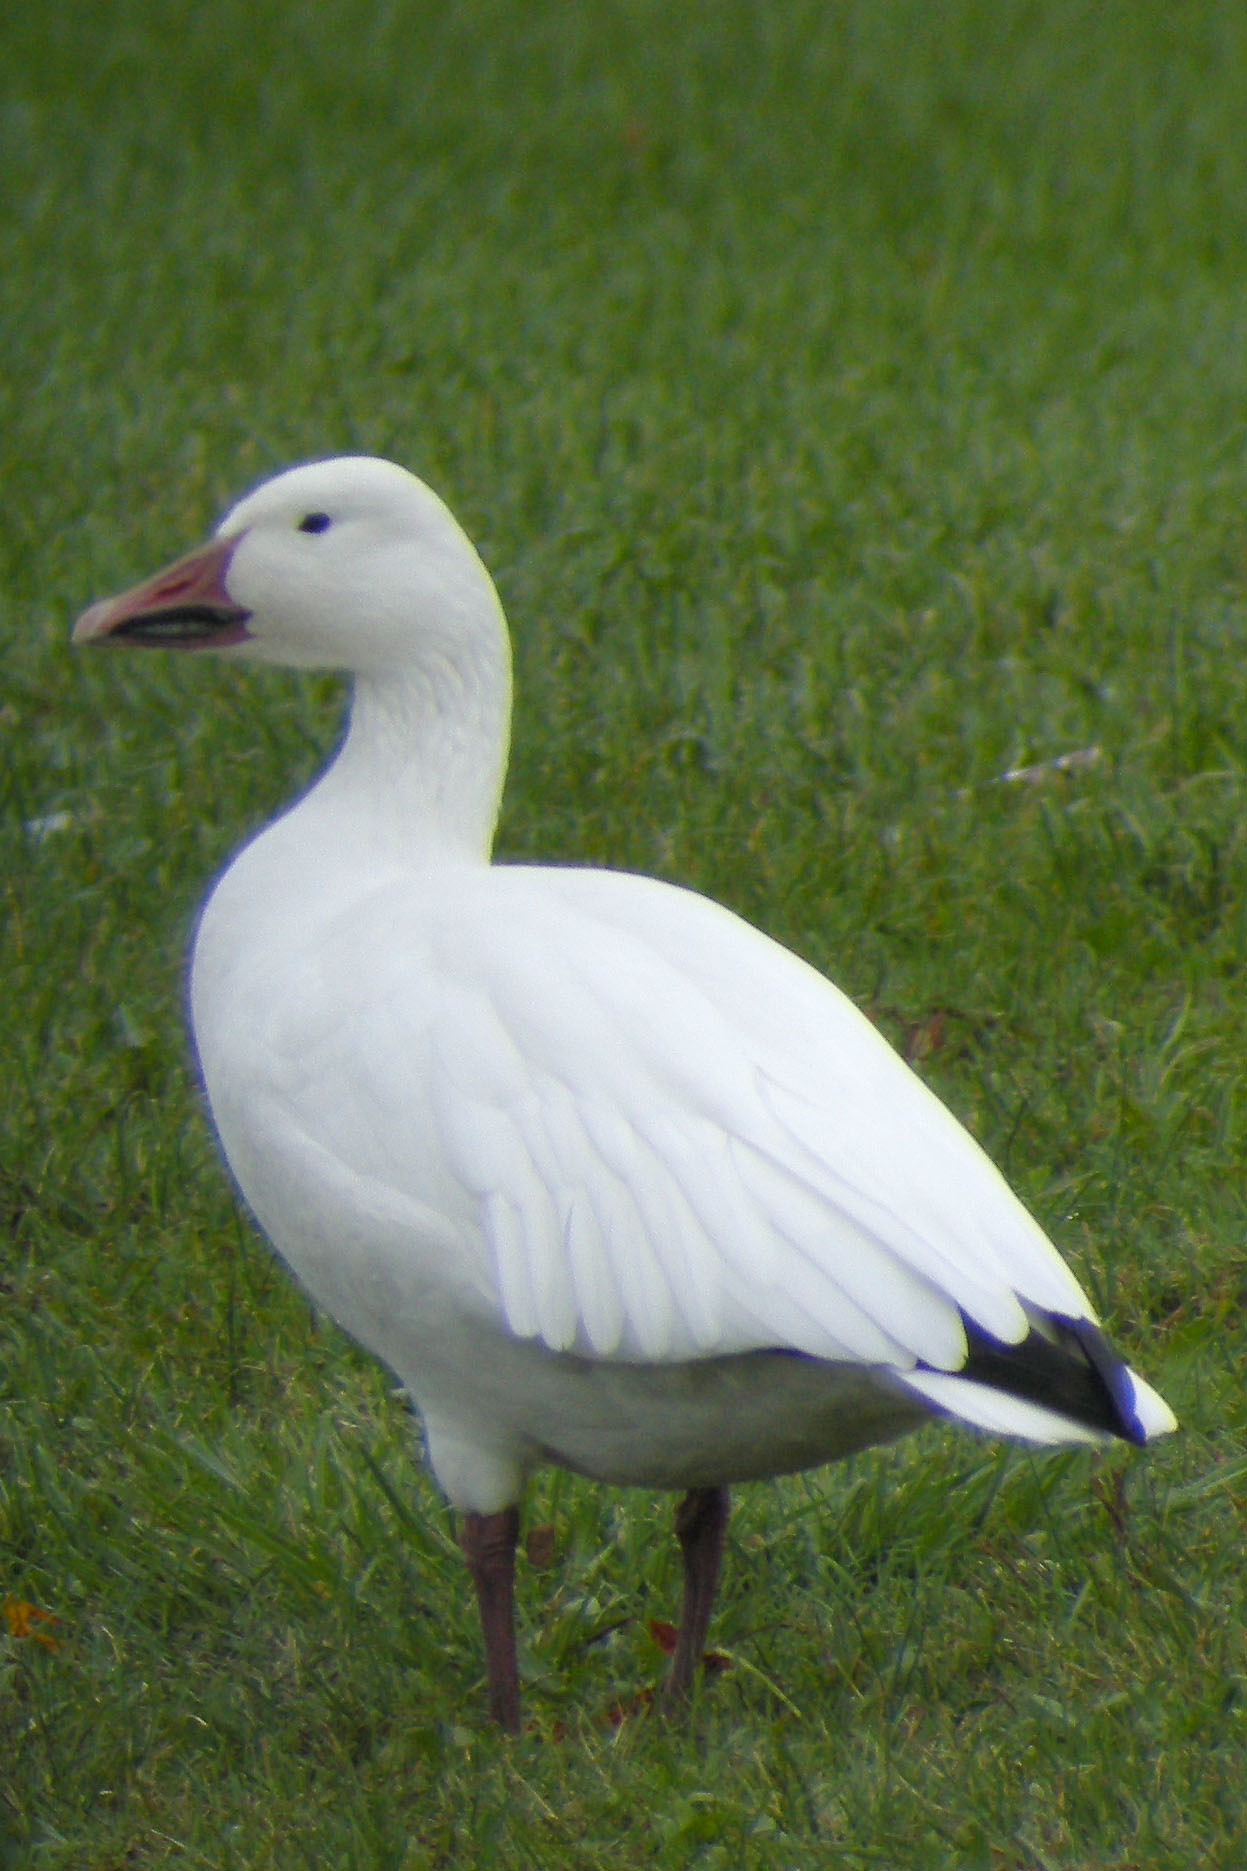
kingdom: Animalia
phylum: Chordata
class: Aves
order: Anseriformes
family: Anatidae
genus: Anser
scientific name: Anser caerulescens
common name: Snow goose
